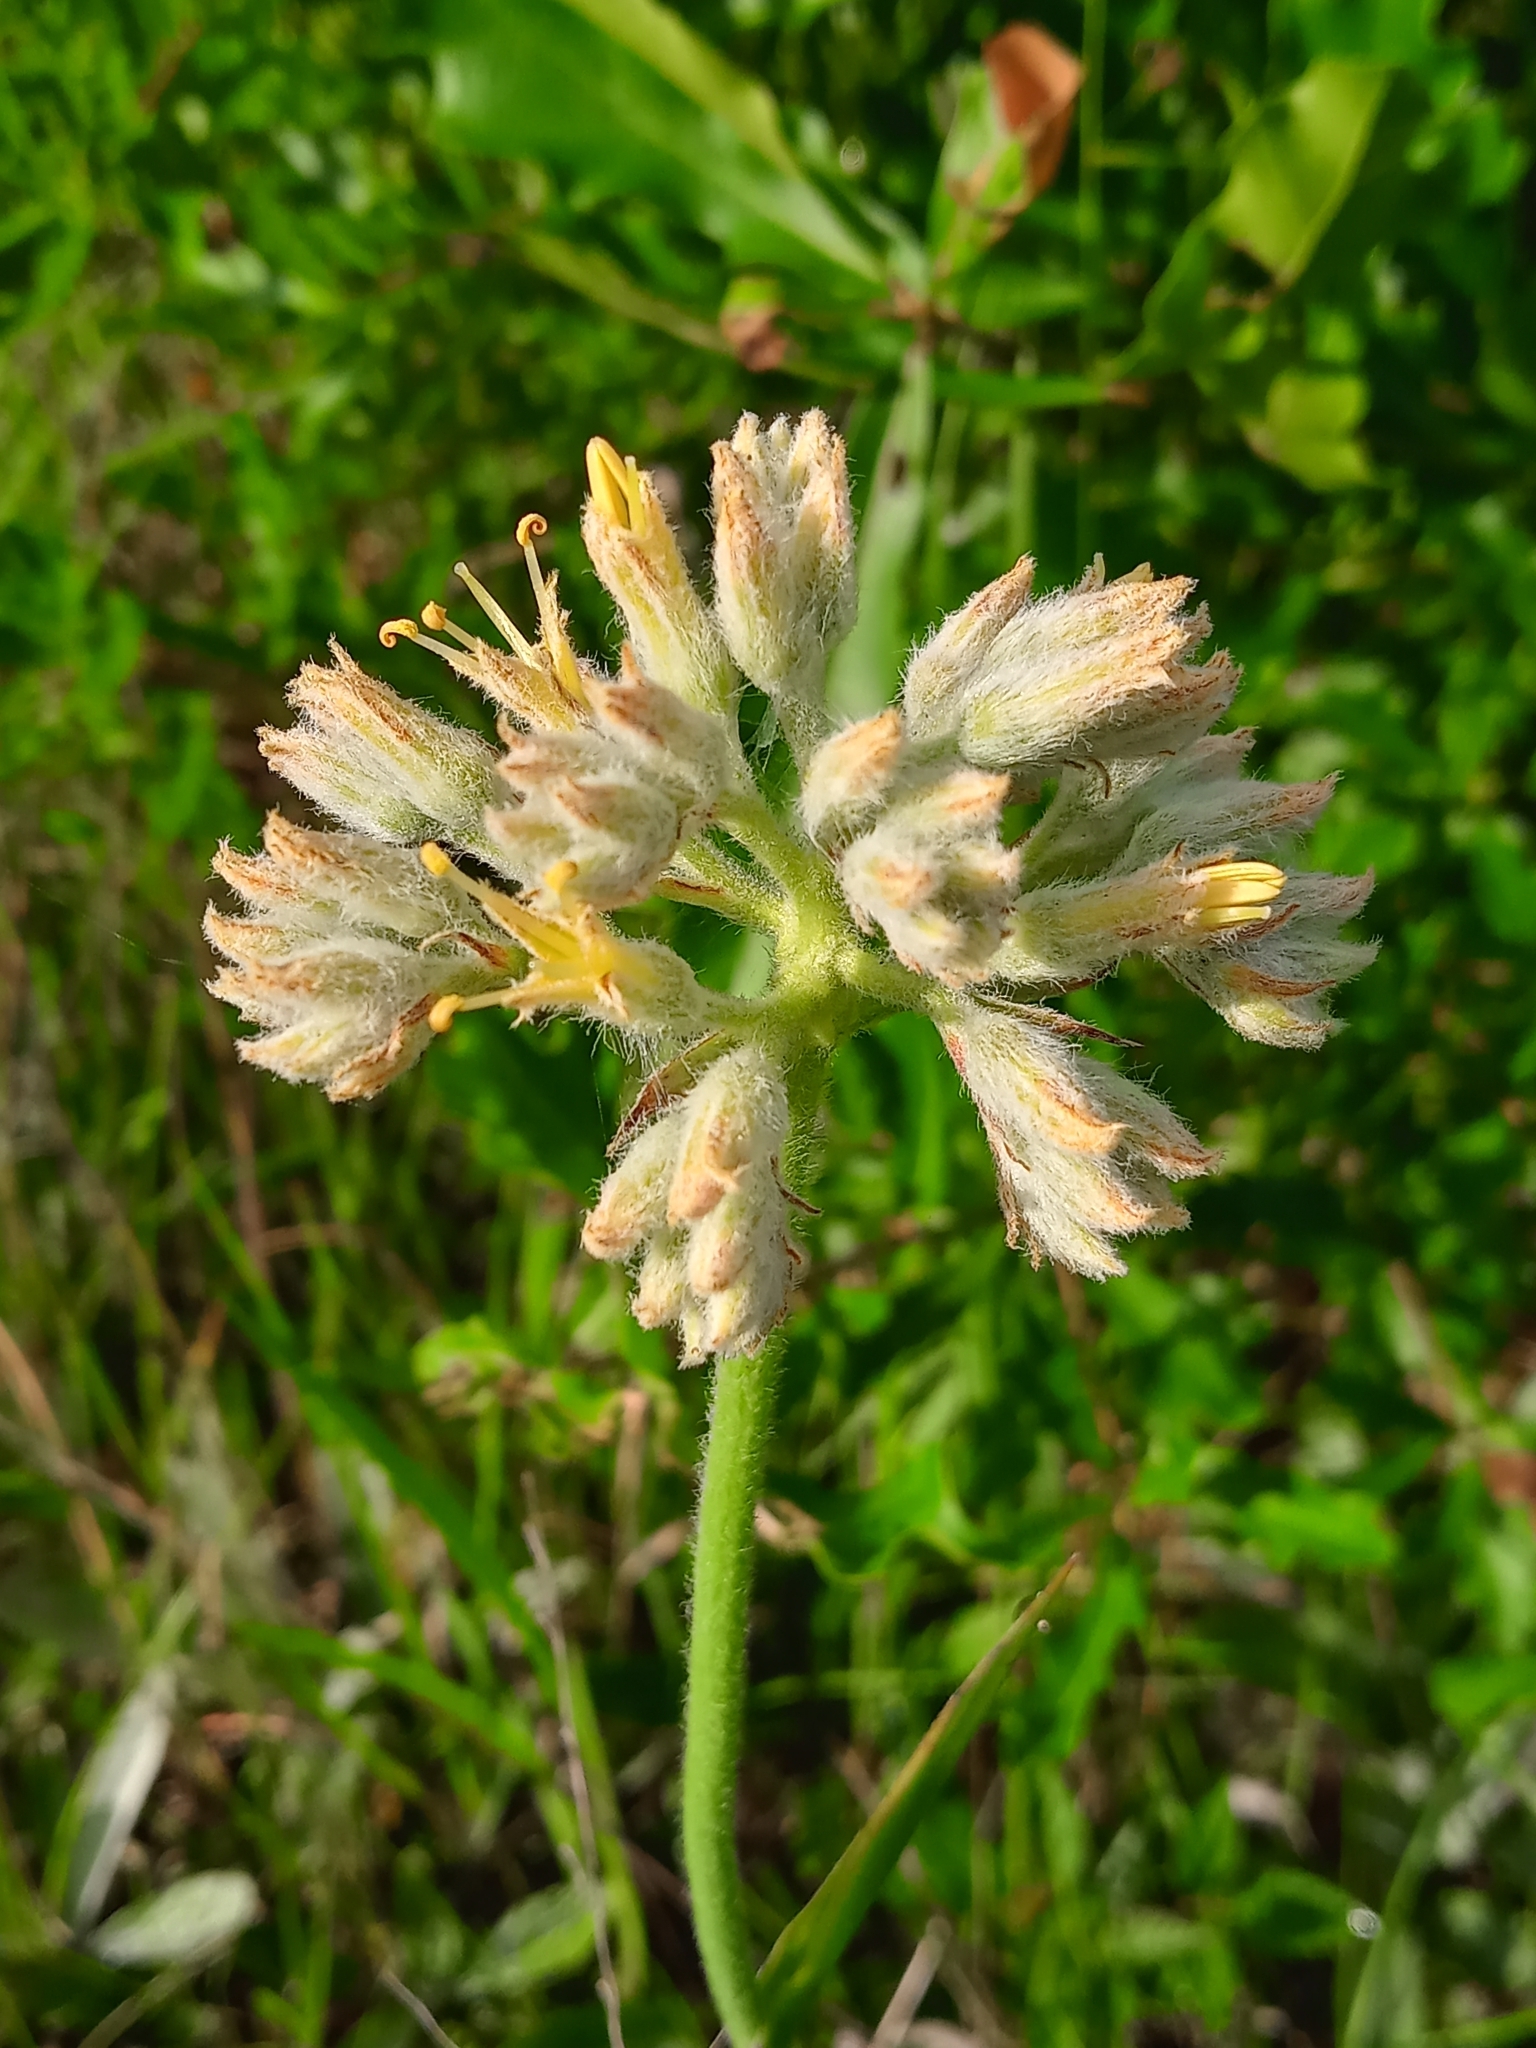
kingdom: Plantae
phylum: Tracheophyta
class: Liliopsida
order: Commelinales
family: Haemodoraceae
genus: Lachnanthes
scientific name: Lachnanthes caroliana
